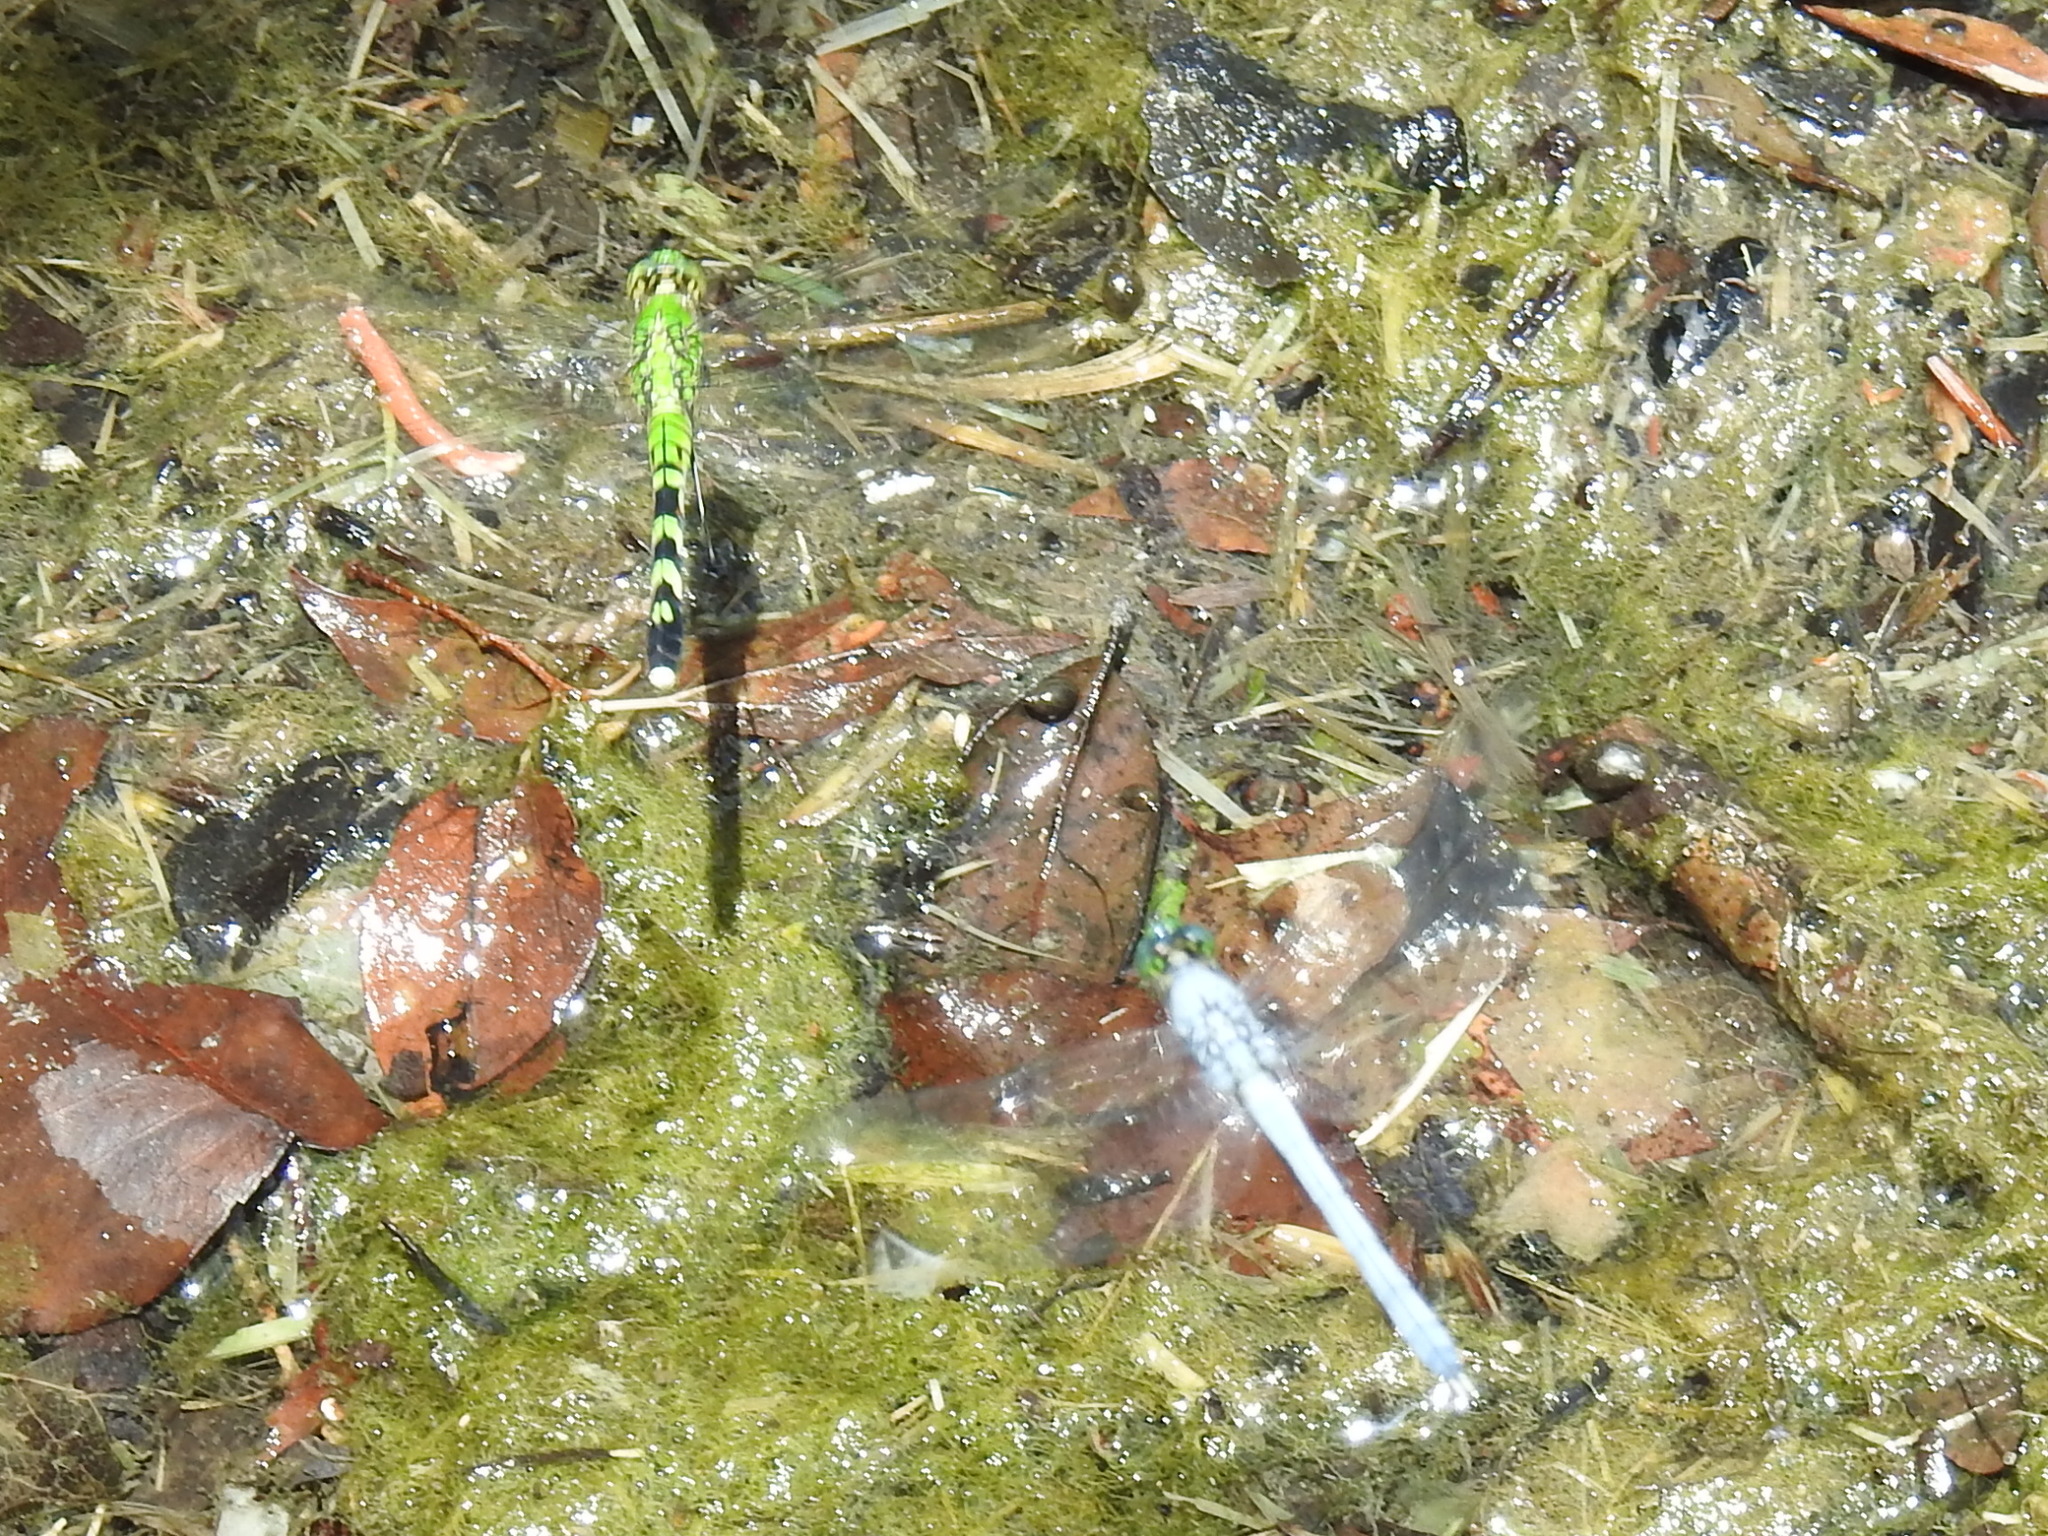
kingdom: Animalia
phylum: Arthropoda
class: Insecta
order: Odonata
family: Libellulidae
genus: Erythemis
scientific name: Erythemis simplicicollis
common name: Eastern pondhawk
